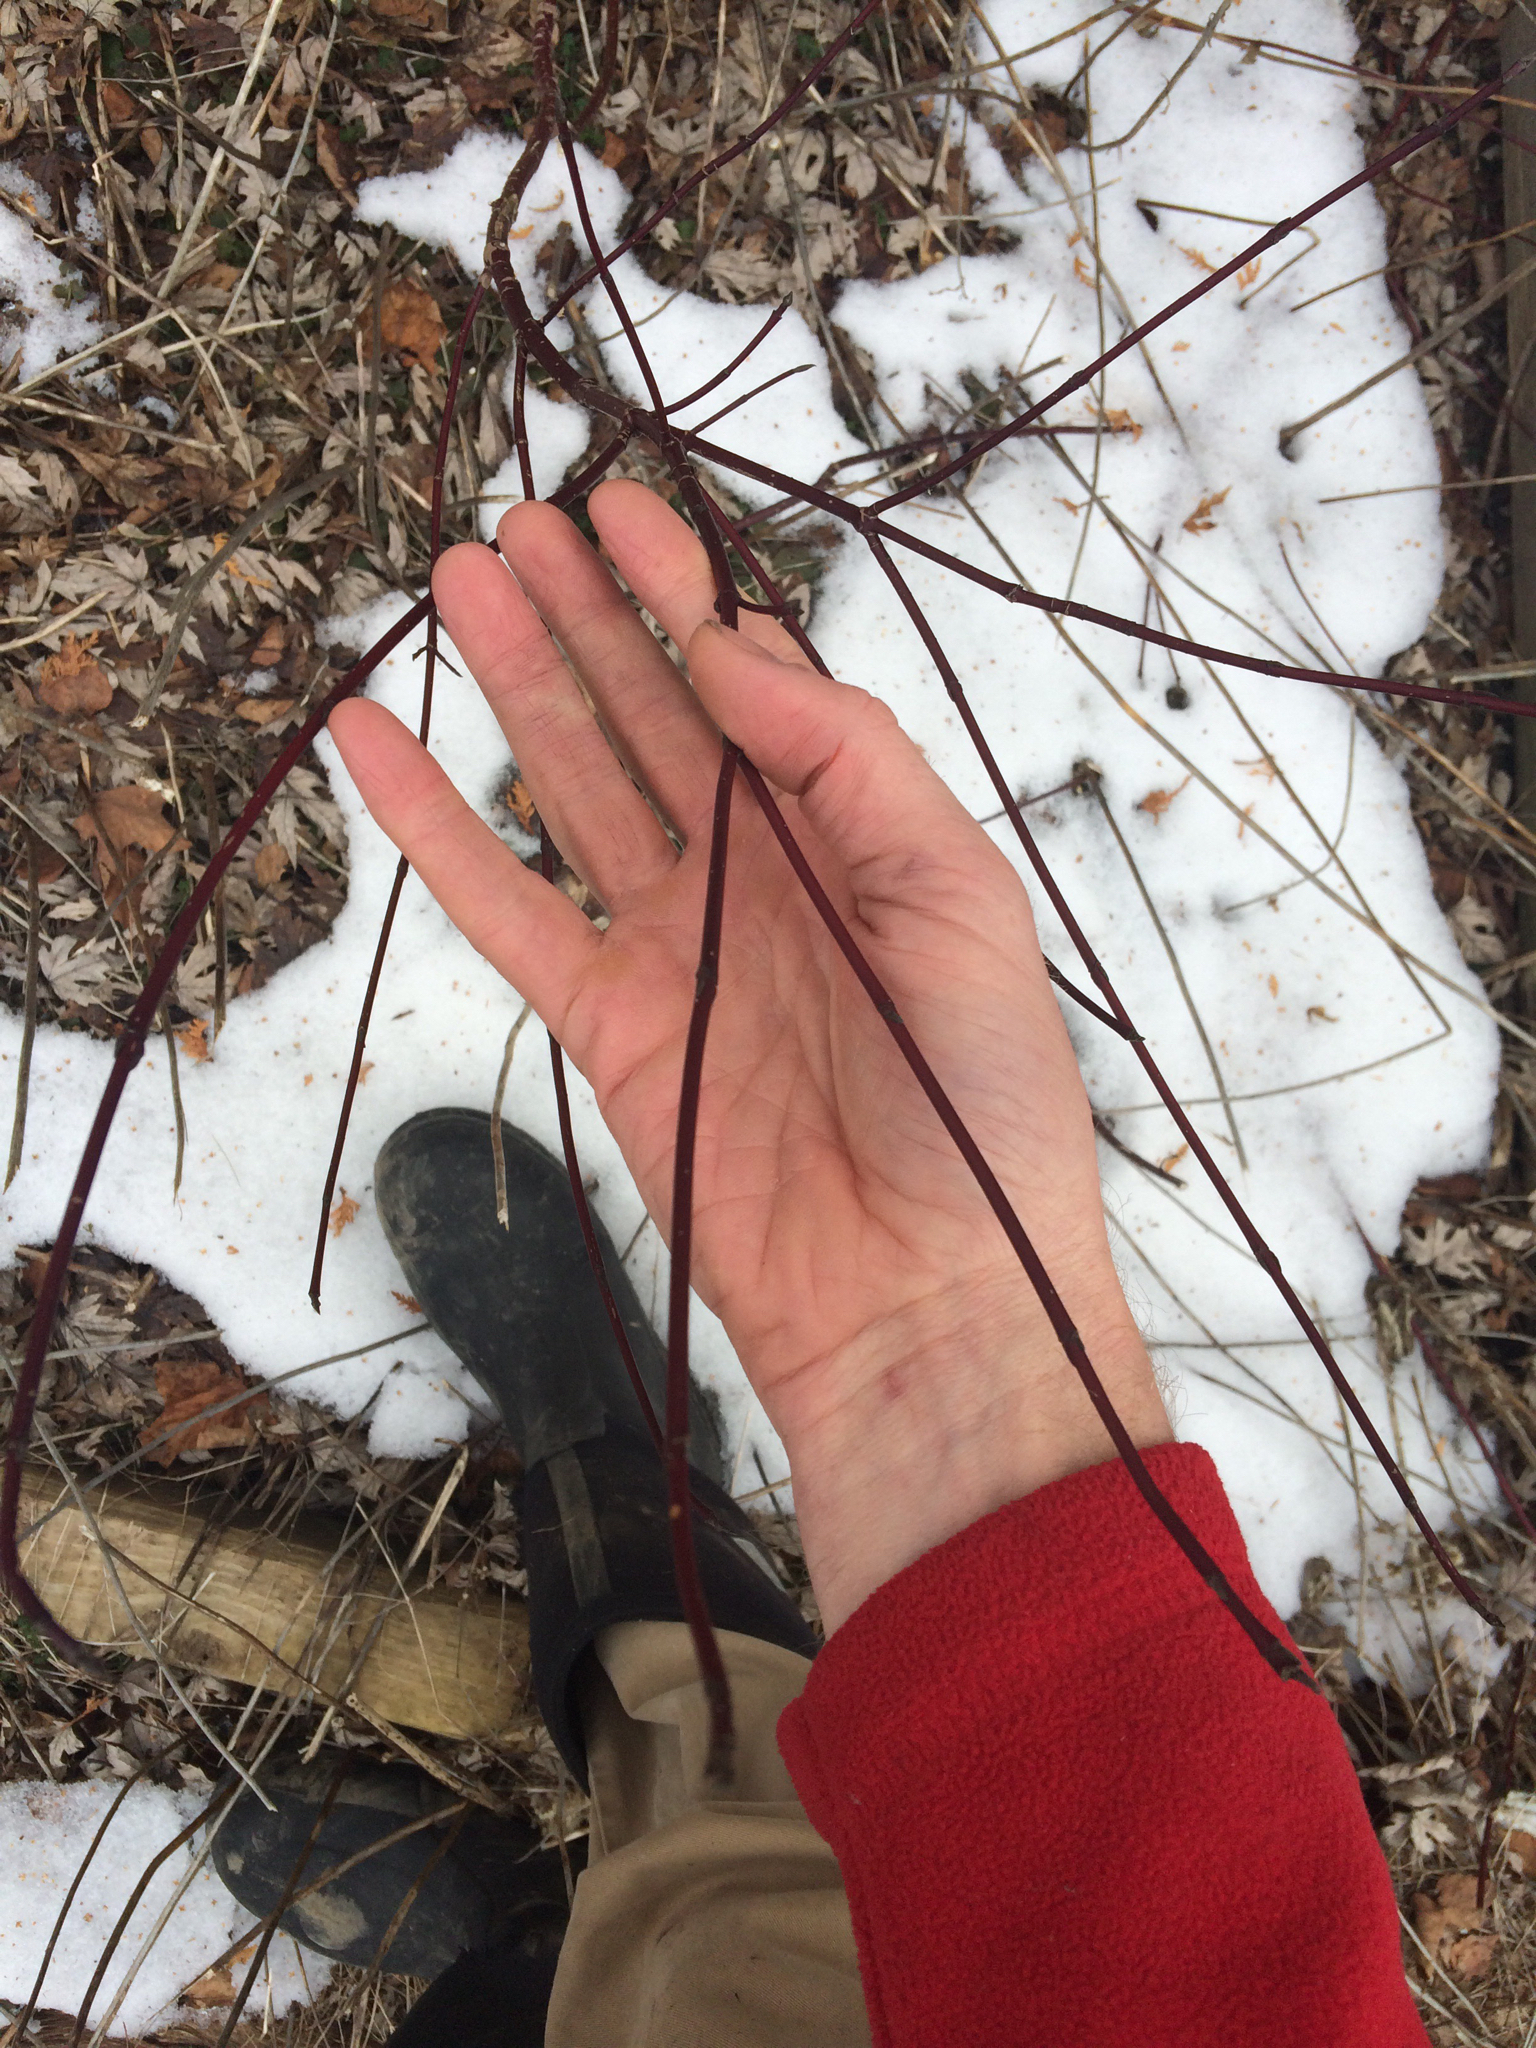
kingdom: Plantae
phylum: Tracheophyta
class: Magnoliopsida
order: Cornales
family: Cornaceae
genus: Cornus
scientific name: Cornus sericea
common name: Red-osier dogwood
